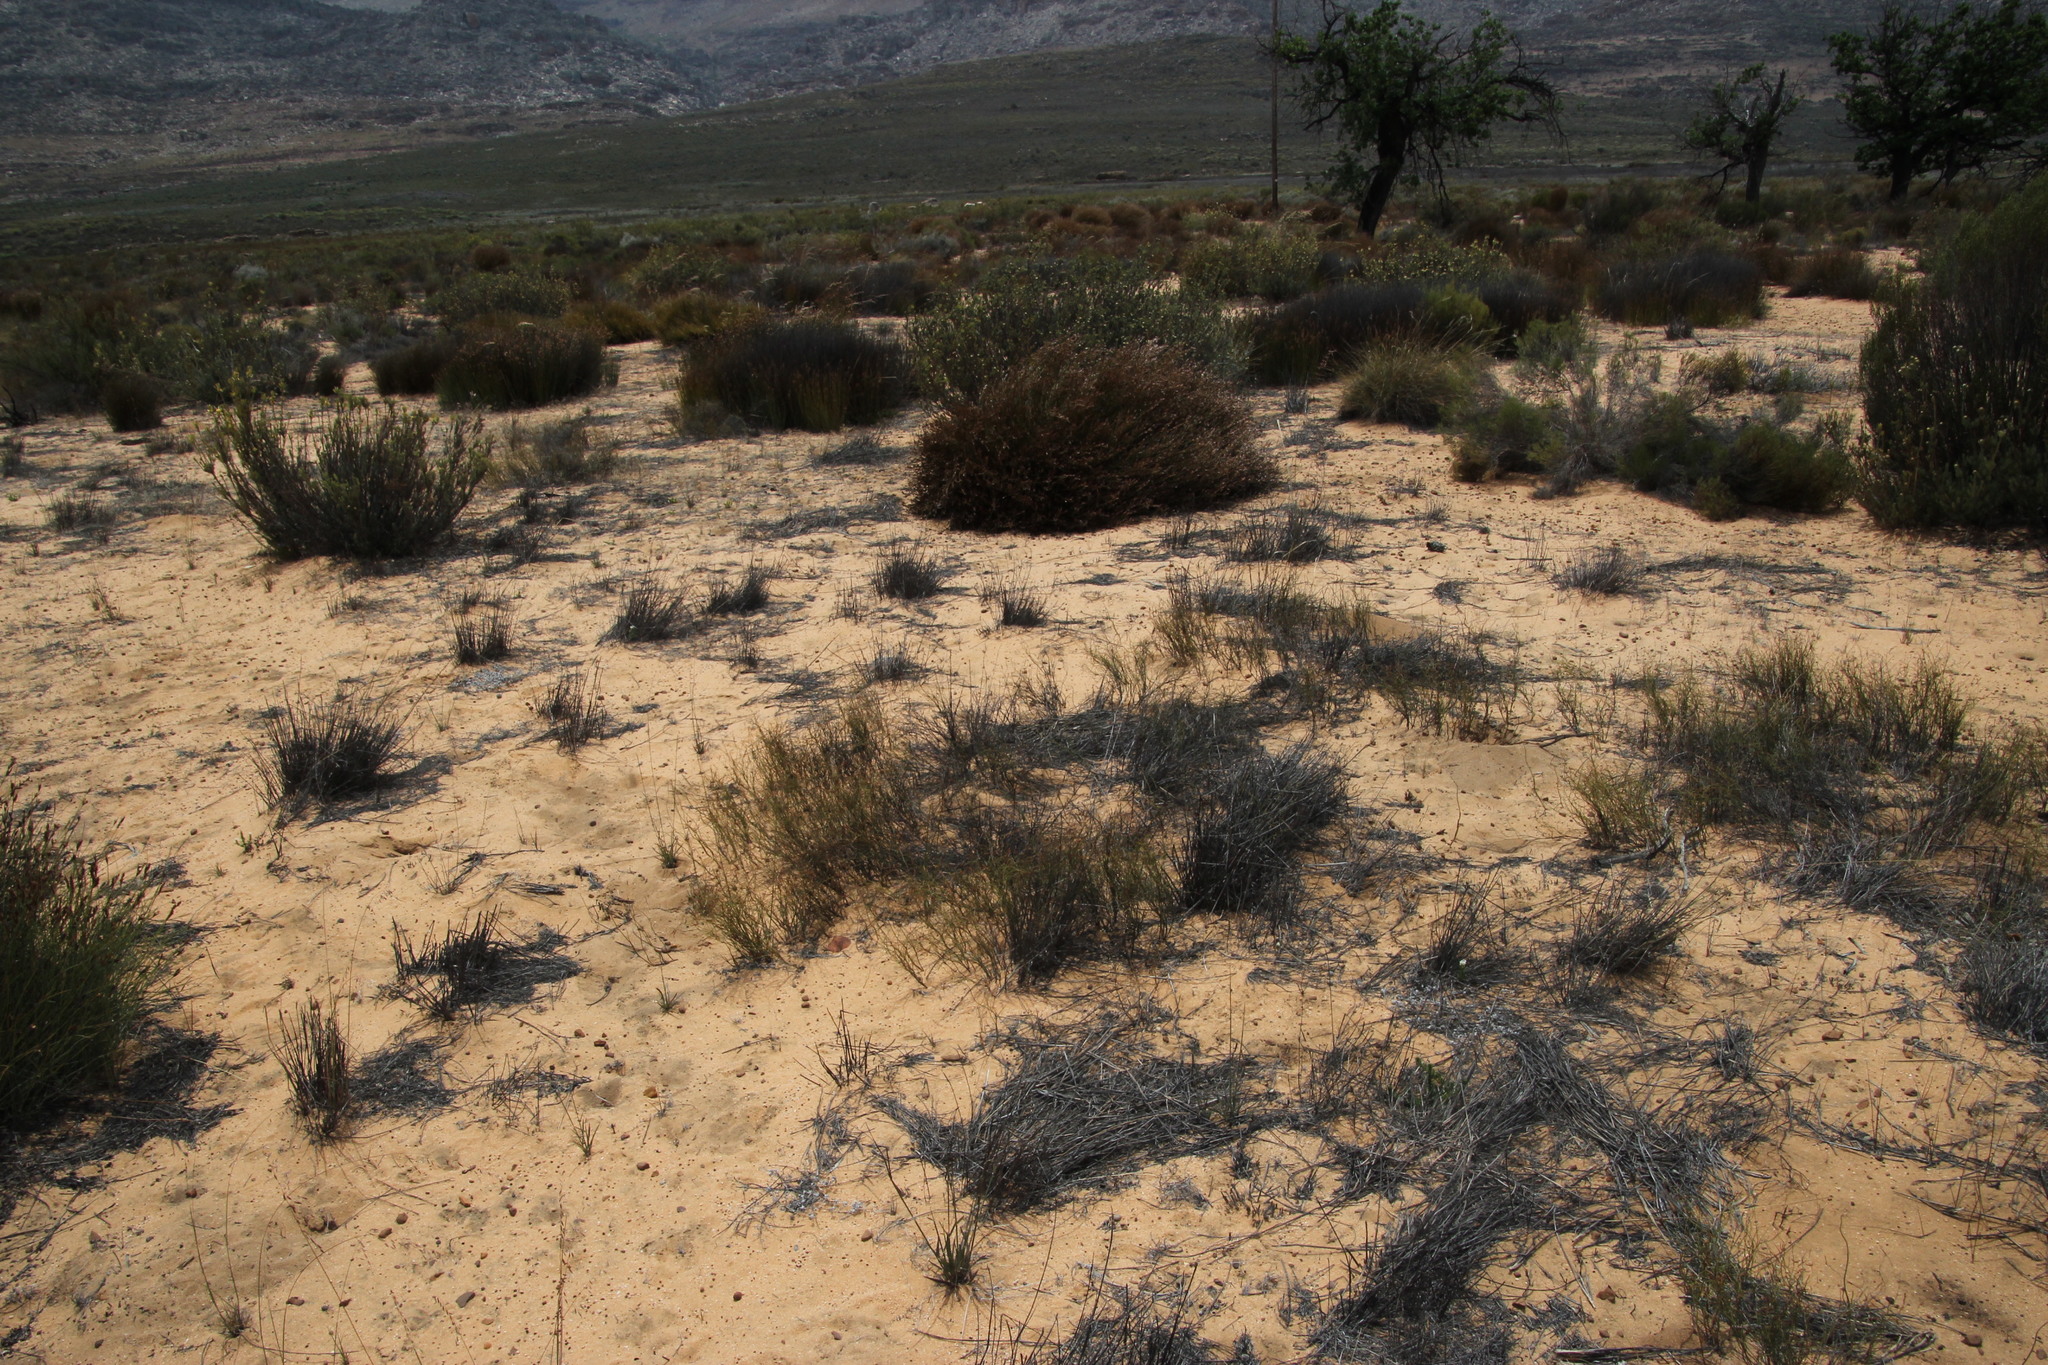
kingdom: Plantae
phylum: Tracheophyta
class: Liliopsida
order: Poales
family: Restionaceae
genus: Restio
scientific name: Restio unispicatus
